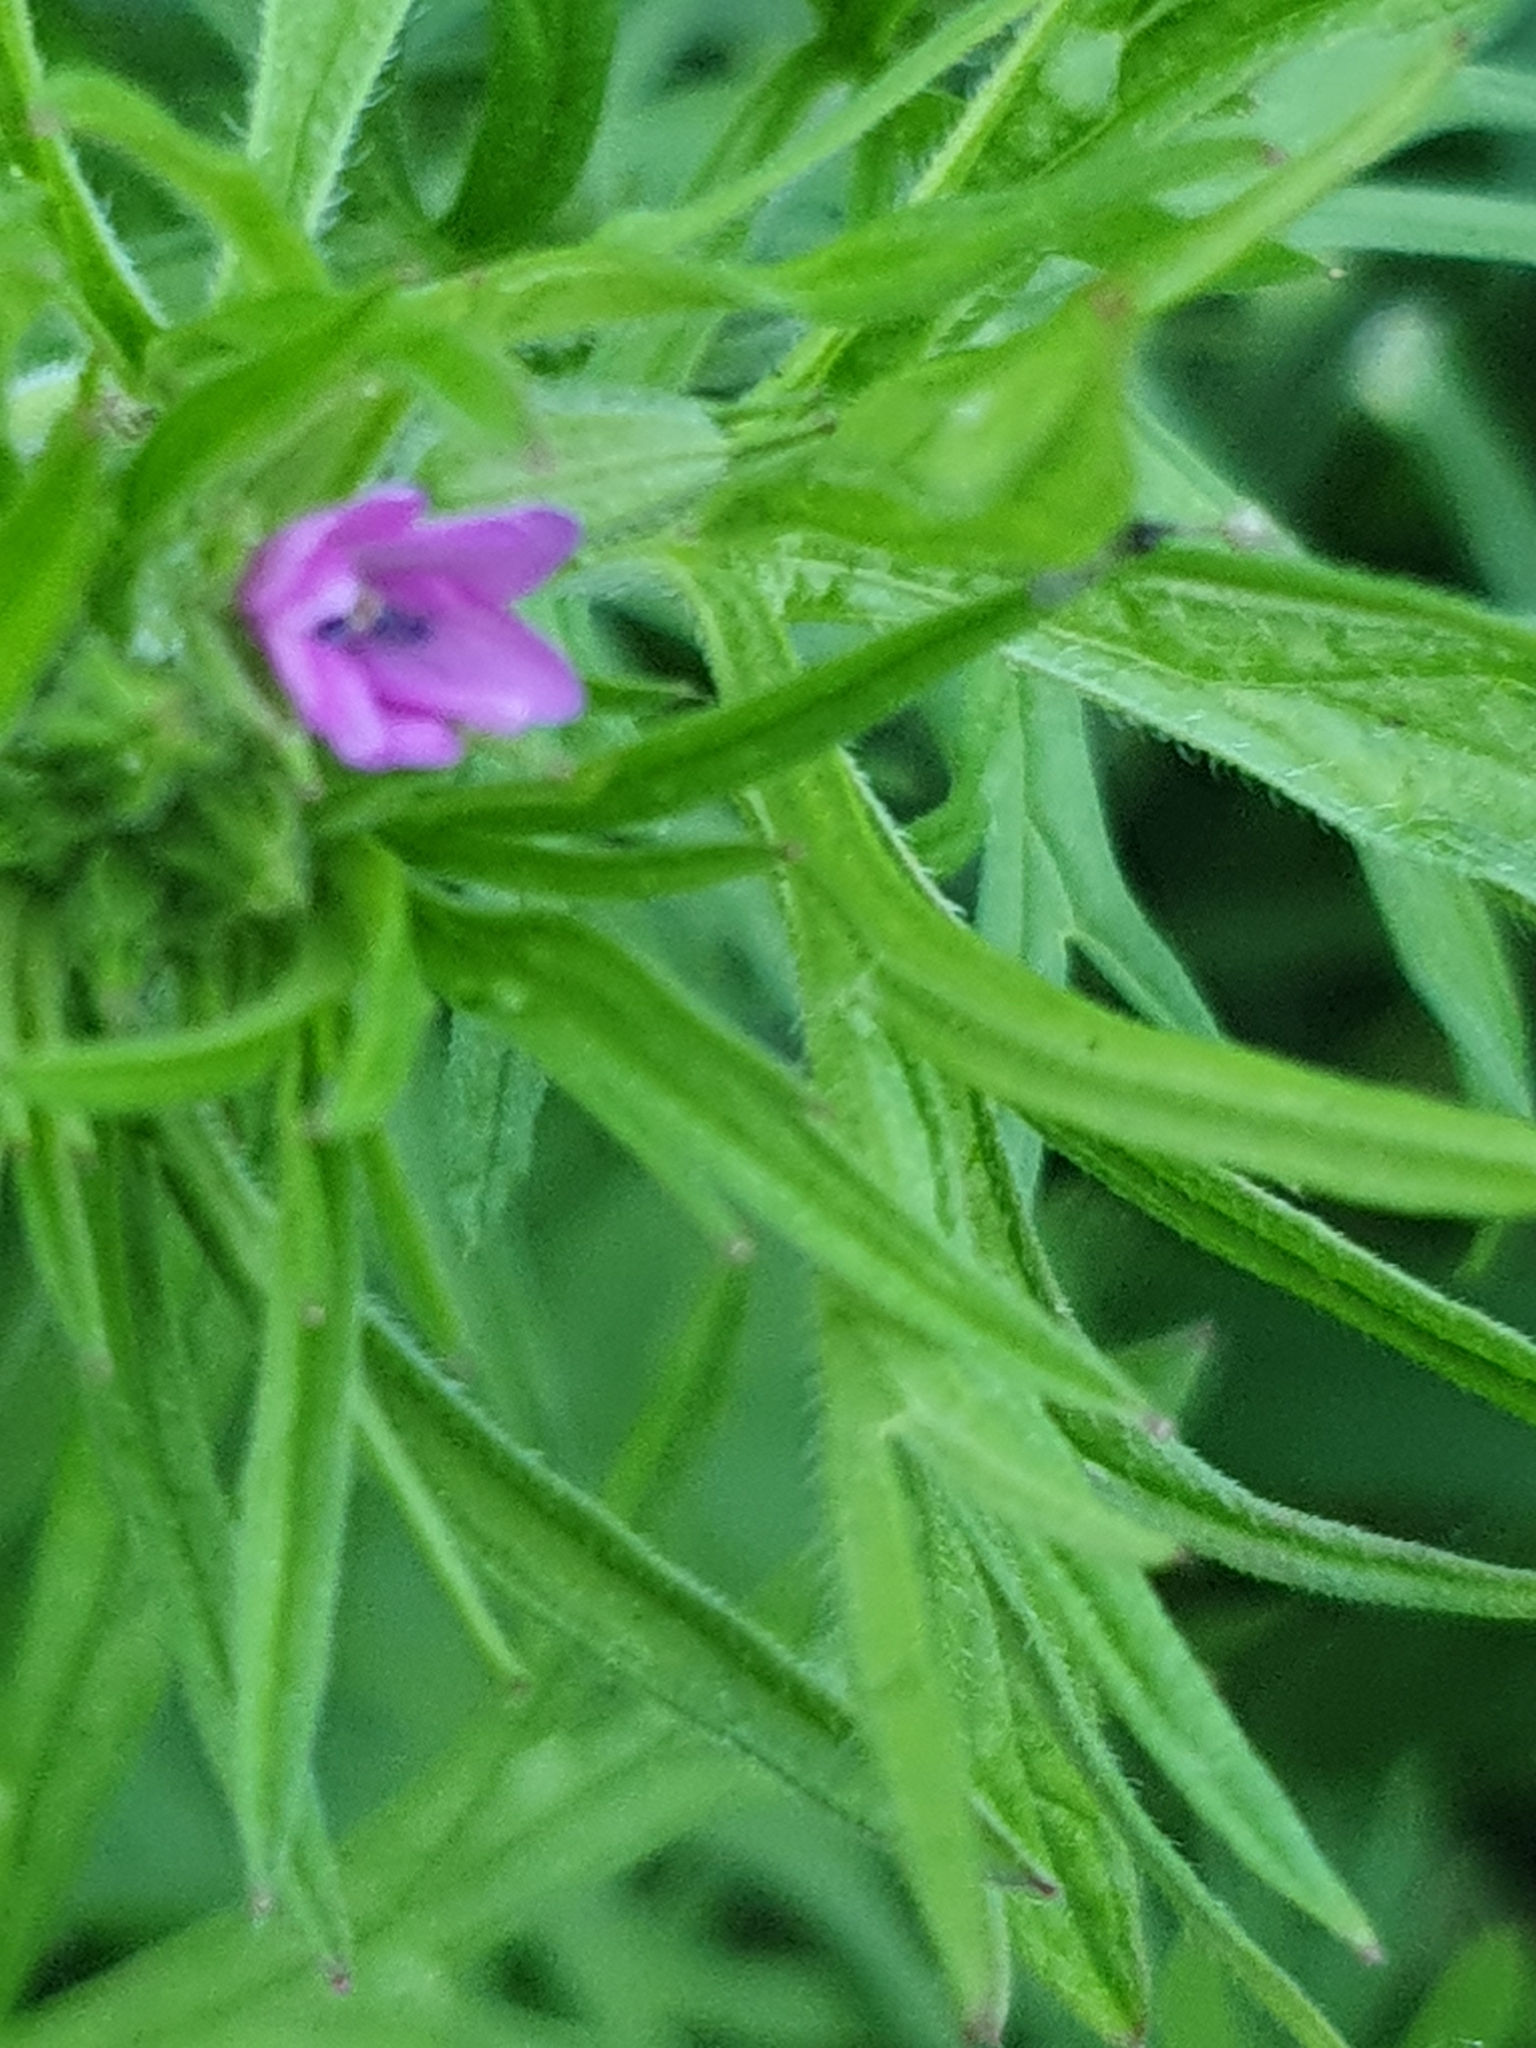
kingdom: Plantae
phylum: Tracheophyta
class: Magnoliopsida
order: Geraniales
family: Geraniaceae
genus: Geranium
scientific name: Geranium dissectum
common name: Cut-leaved crane's-bill
